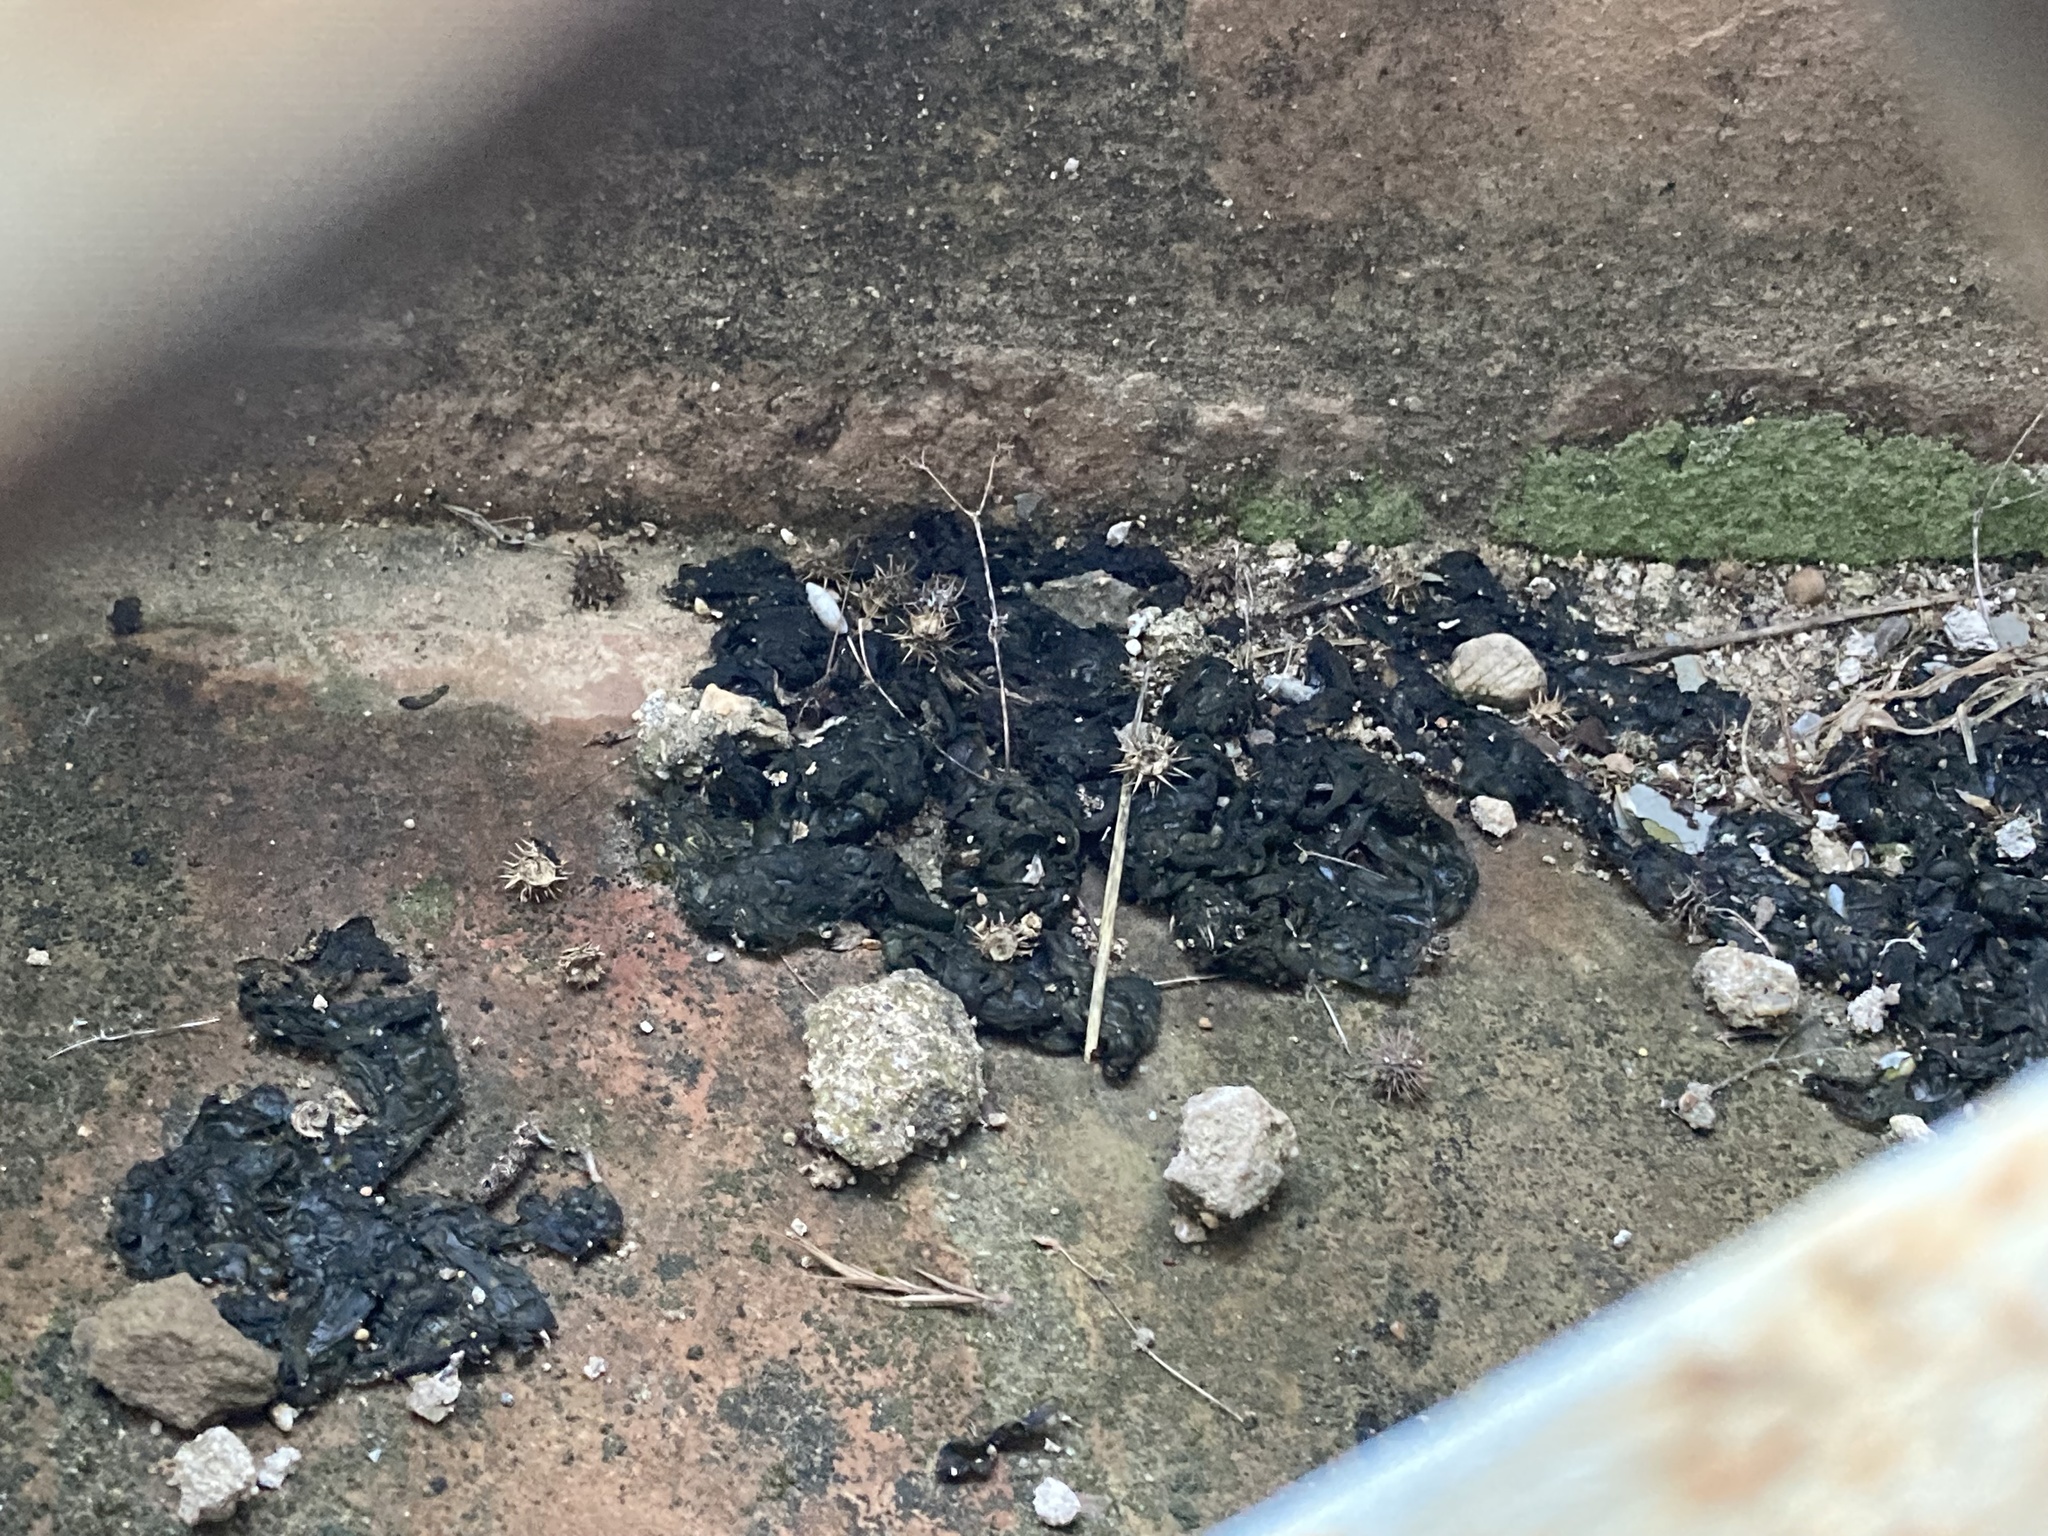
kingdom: Bacteria
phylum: Cyanobacteria
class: Cyanobacteriia
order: Cyanobacteriales
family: Nostocaceae
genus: Nostoc
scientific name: Nostoc commune
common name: Star jelly
